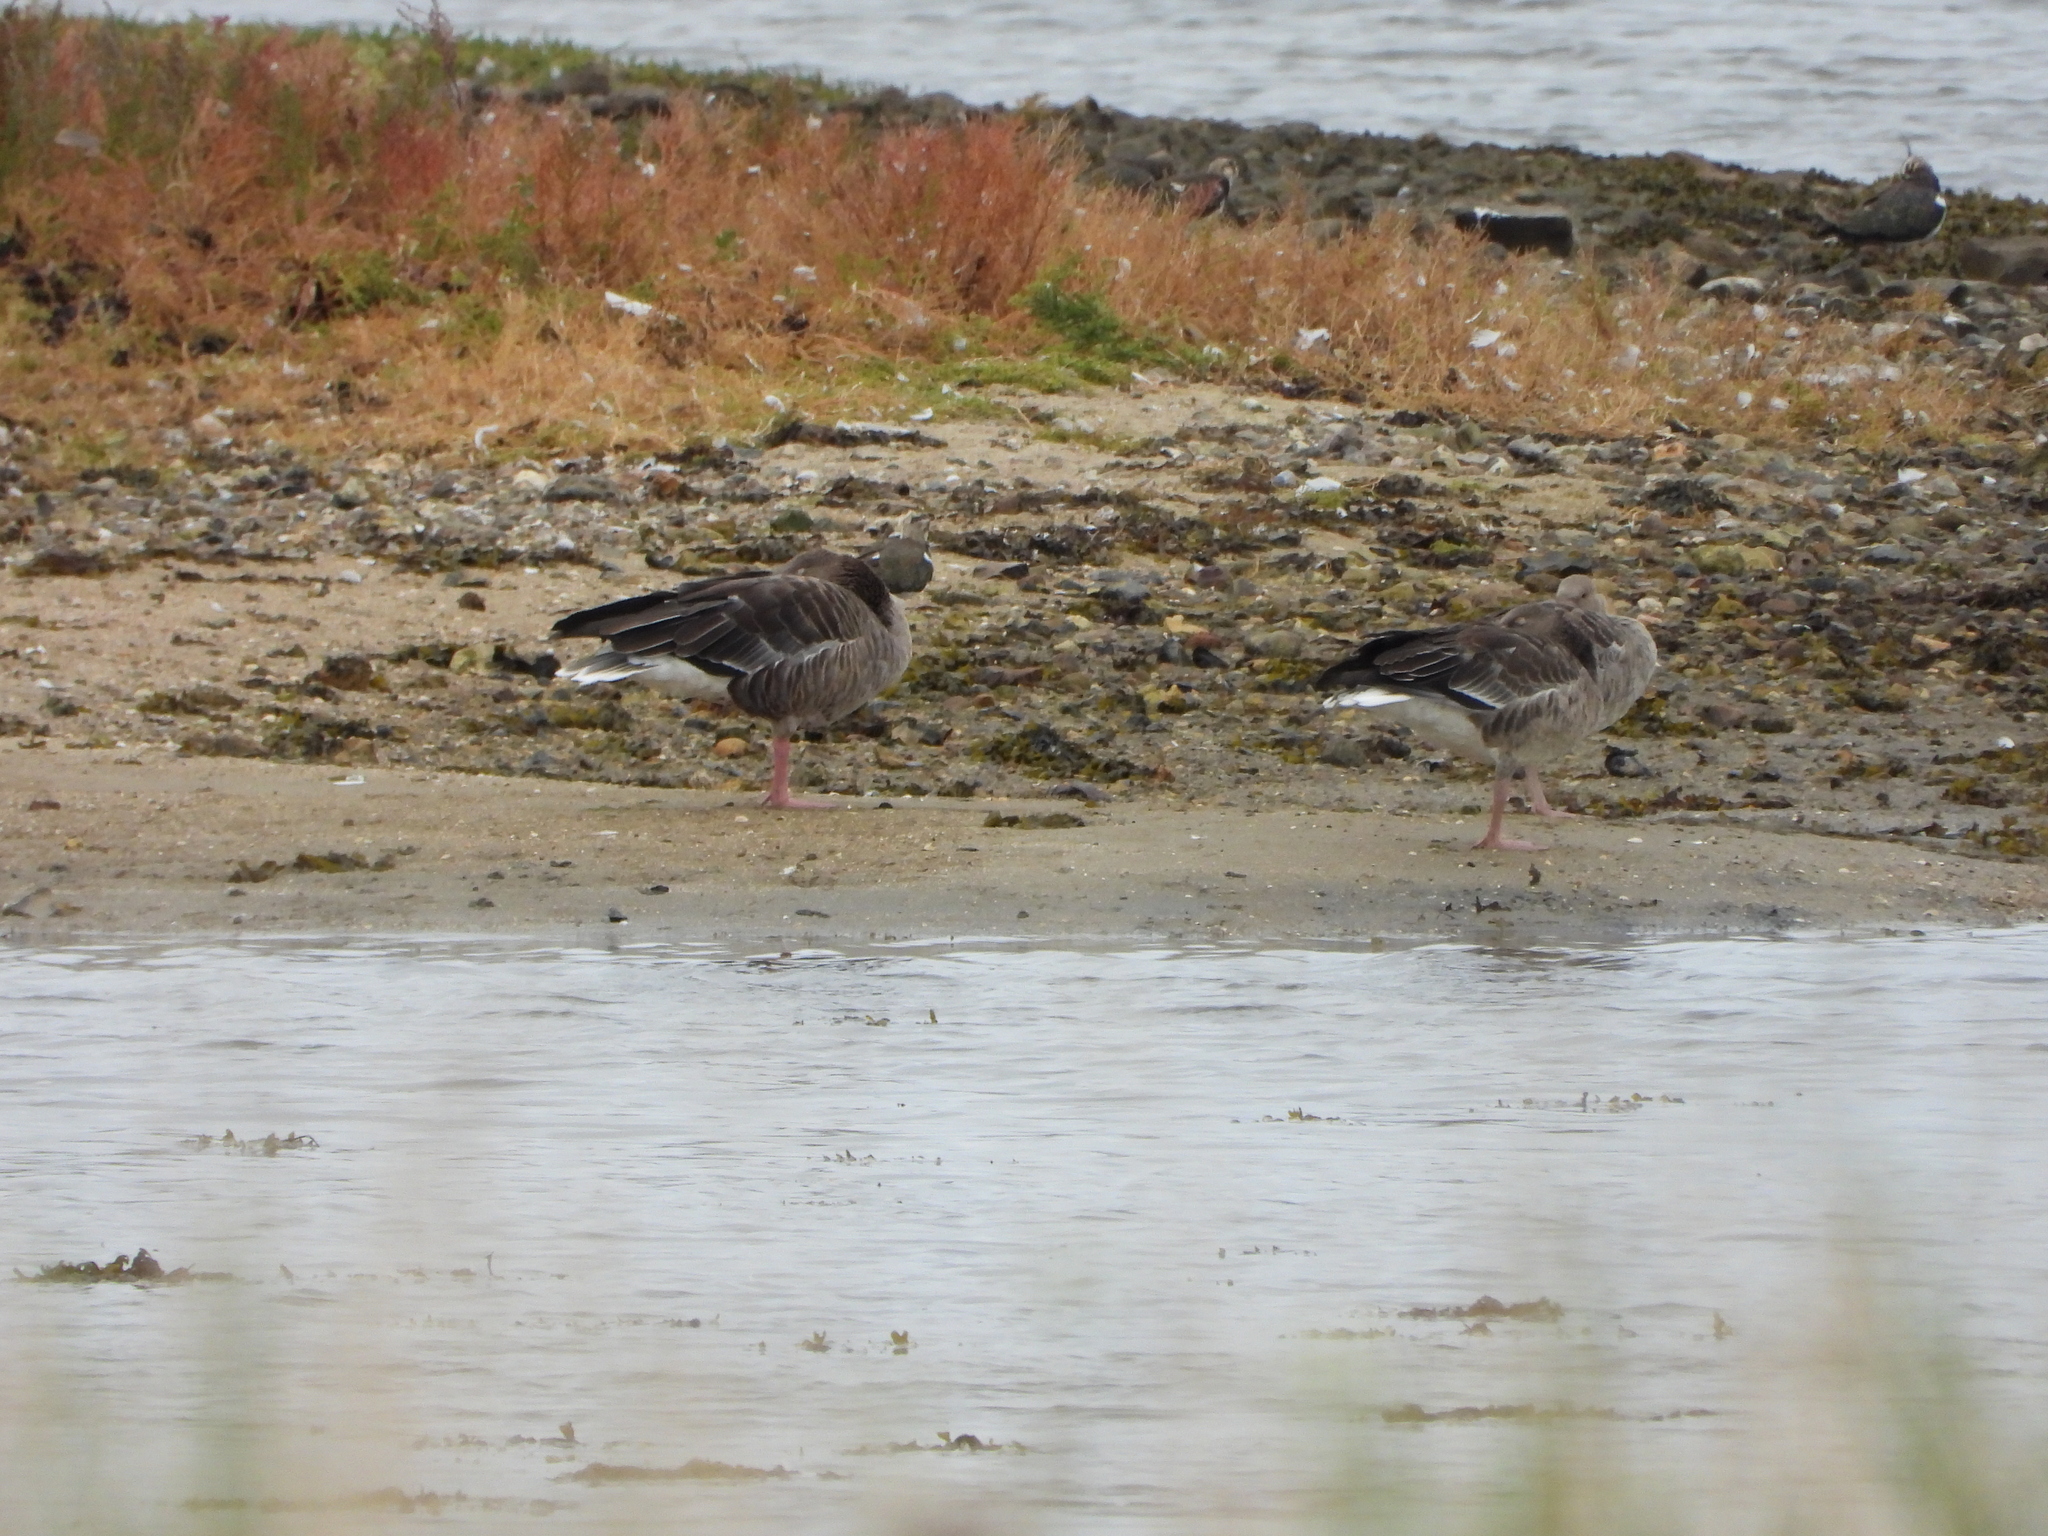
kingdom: Animalia
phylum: Chordata
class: Aves
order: Anseriformes
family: Anatidae
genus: Anser
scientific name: Anser anser
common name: Greylag goose
